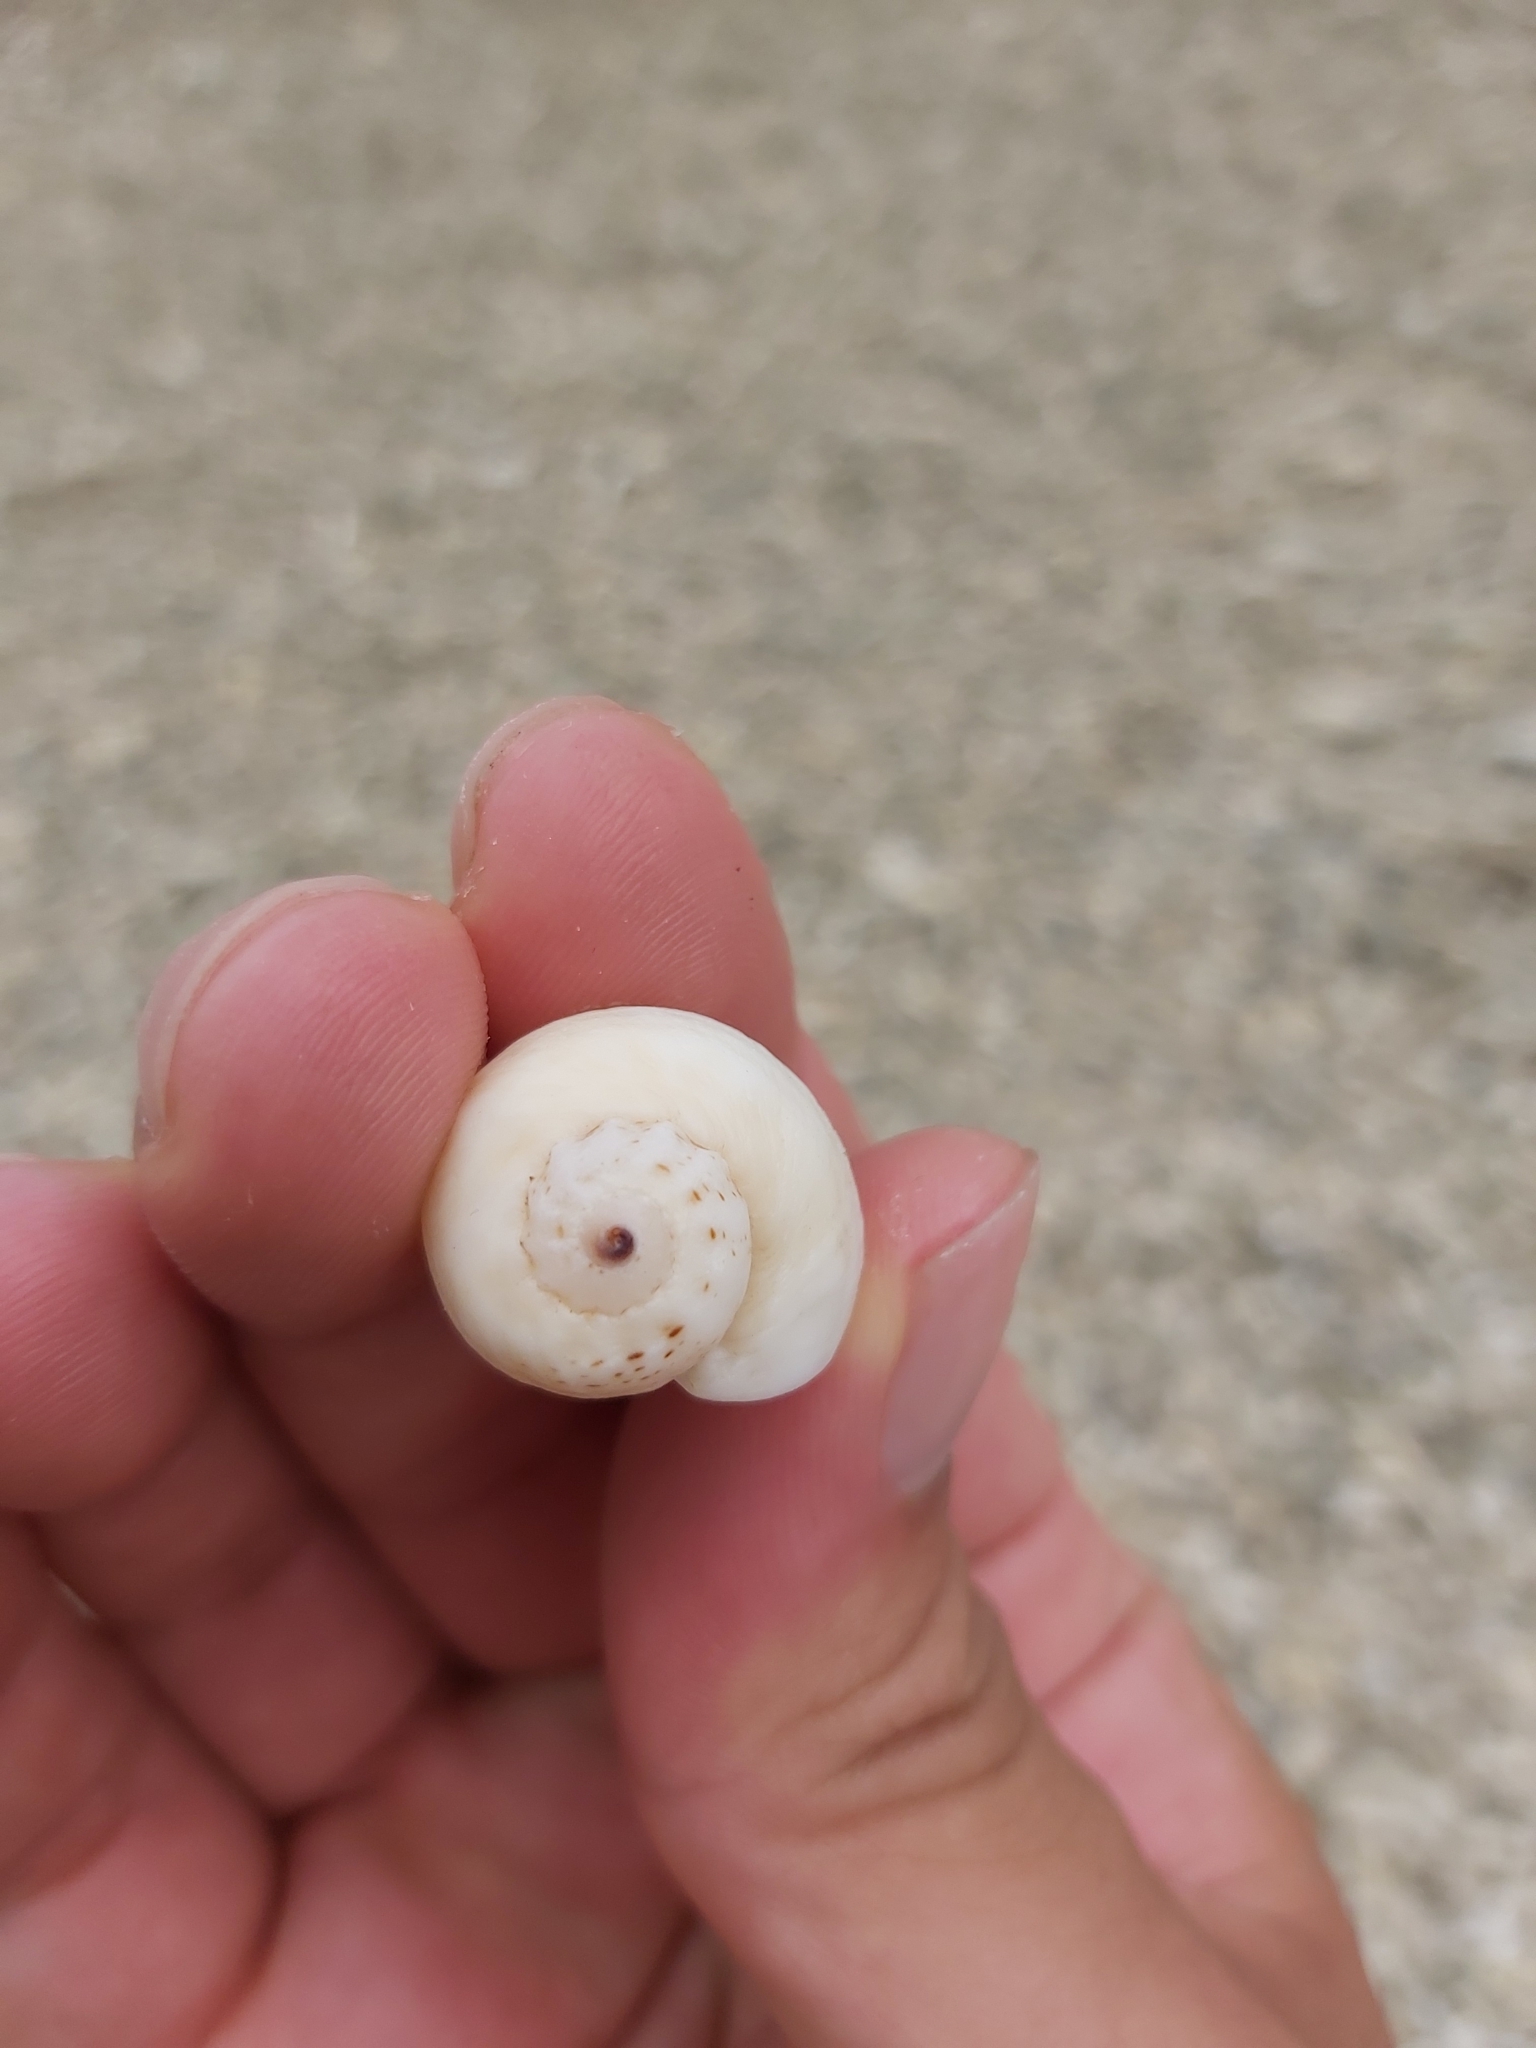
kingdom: Animalia
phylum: Mollusca
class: Gastropoda
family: Modulidae
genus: Indomodulus
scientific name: Indomodulus tectum
